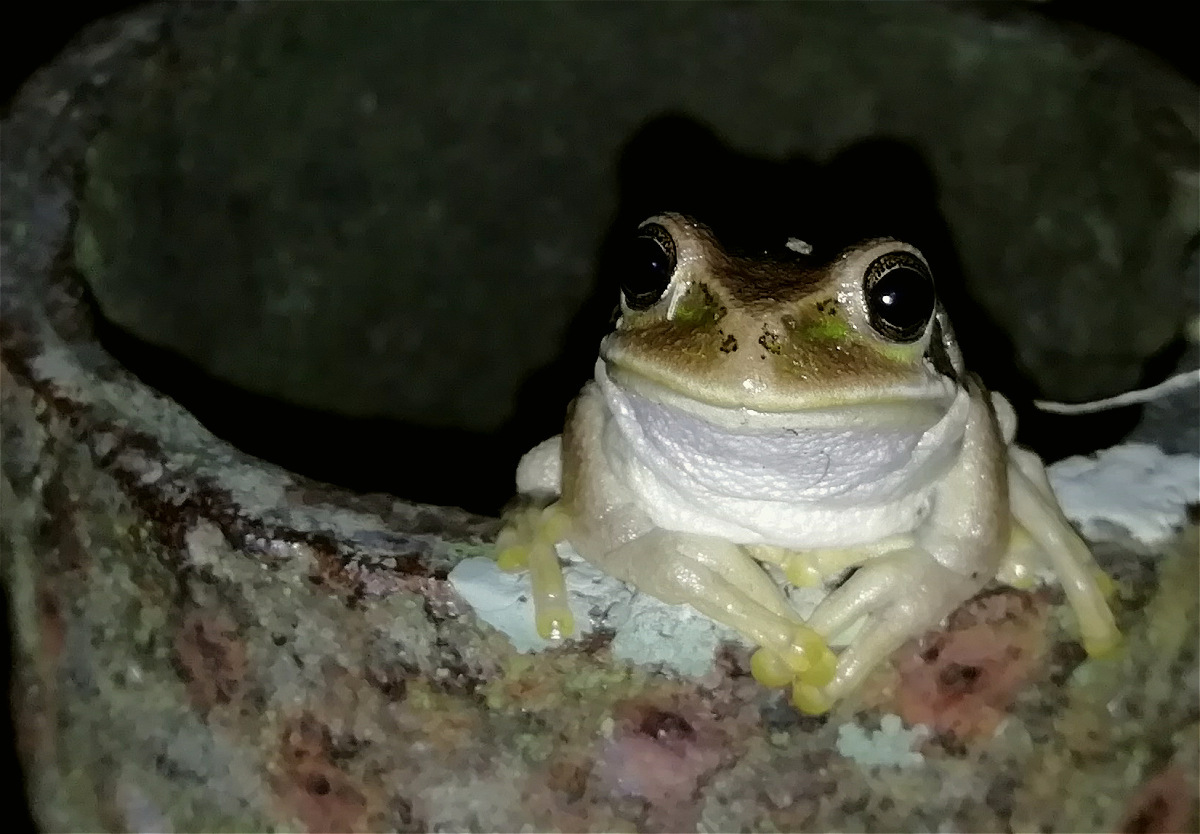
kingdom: Animalia
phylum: Chordata
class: Amphibia
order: Anura
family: Hemiphractidae
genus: Gastrotheca
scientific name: Gastrotheca cuencana
